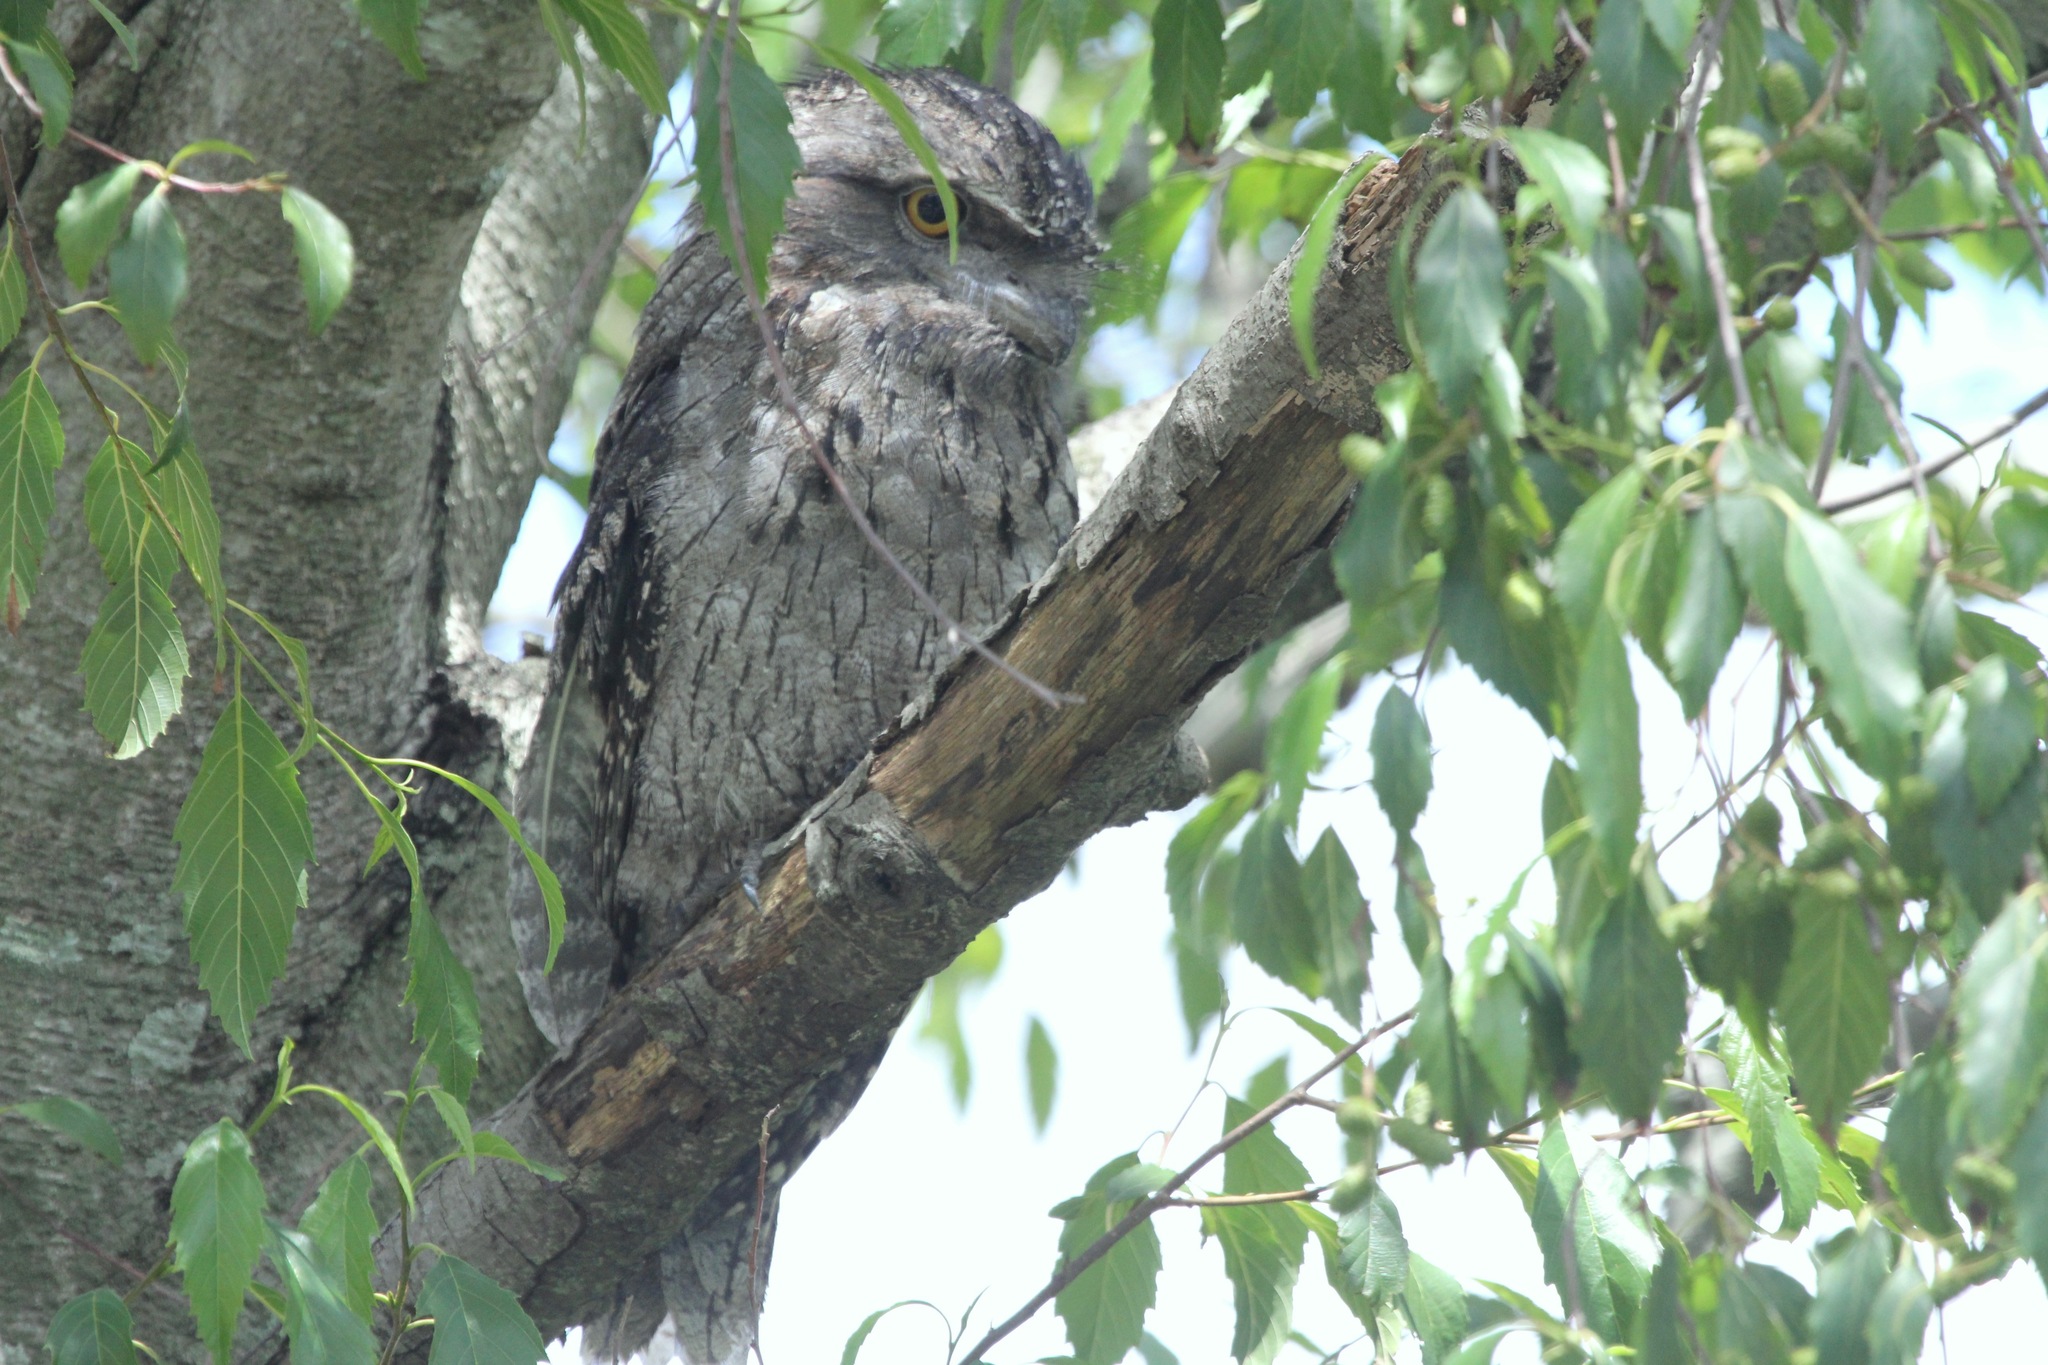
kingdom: Animalia
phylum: Chordata
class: Aves
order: Caprimulgiformes
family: Podargidae
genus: Podargus
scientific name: Podargus strigoides
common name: Tawny frogmouth
